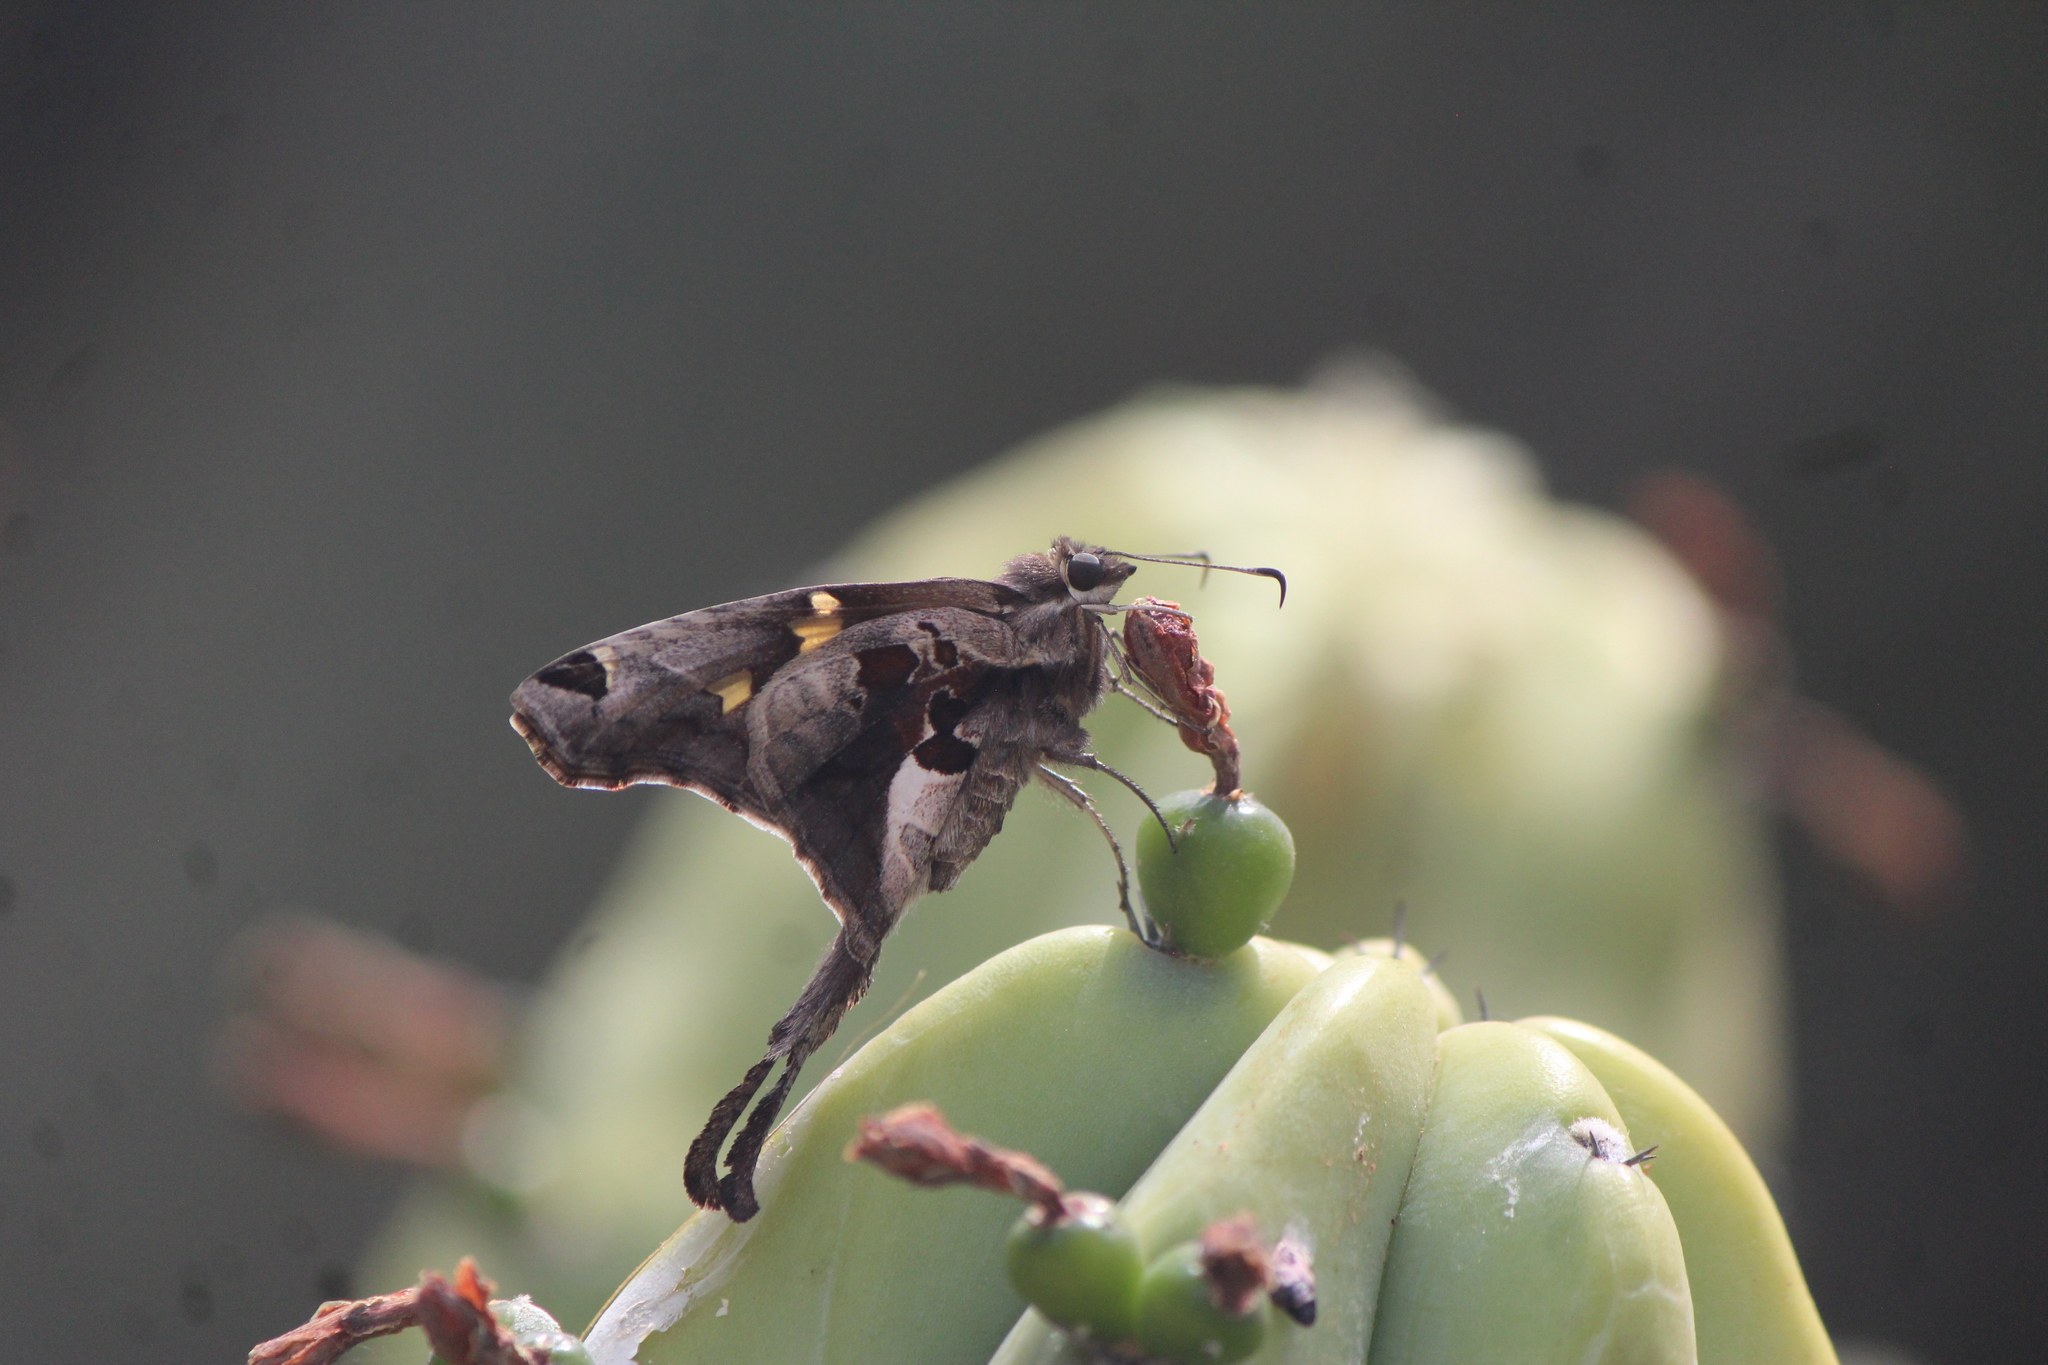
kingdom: Animalia
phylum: Arthropoda
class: Insecta
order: Lepidoptera
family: Hesperiidae
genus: Chioides
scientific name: Chioides zilpa
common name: Zilpa longtail
